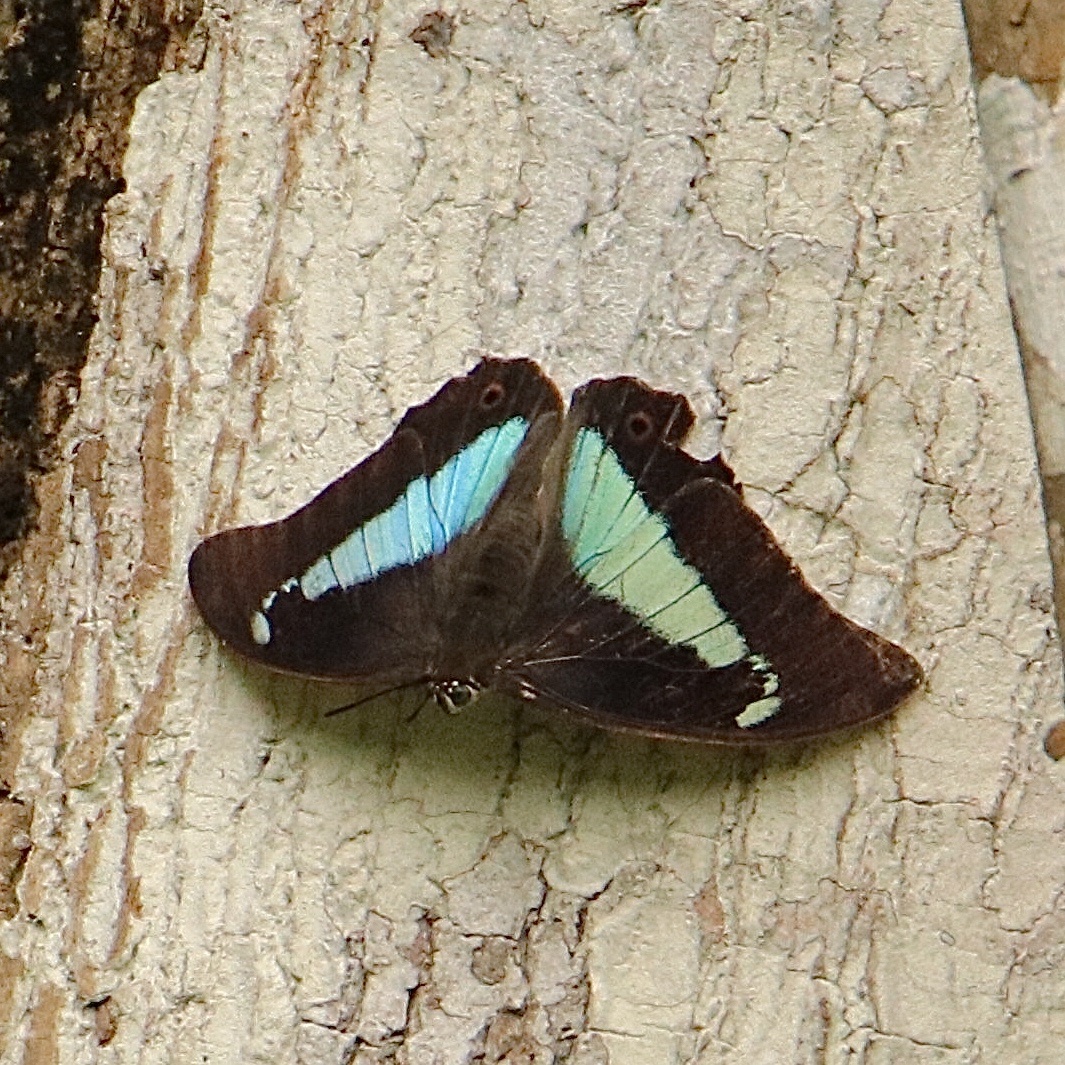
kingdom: Animalia
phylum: Arthropoda
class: Insecta
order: Lepidoptera
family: Nymphalidae
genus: Prepona
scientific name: Prepona demophon
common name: One-spotted prepona
